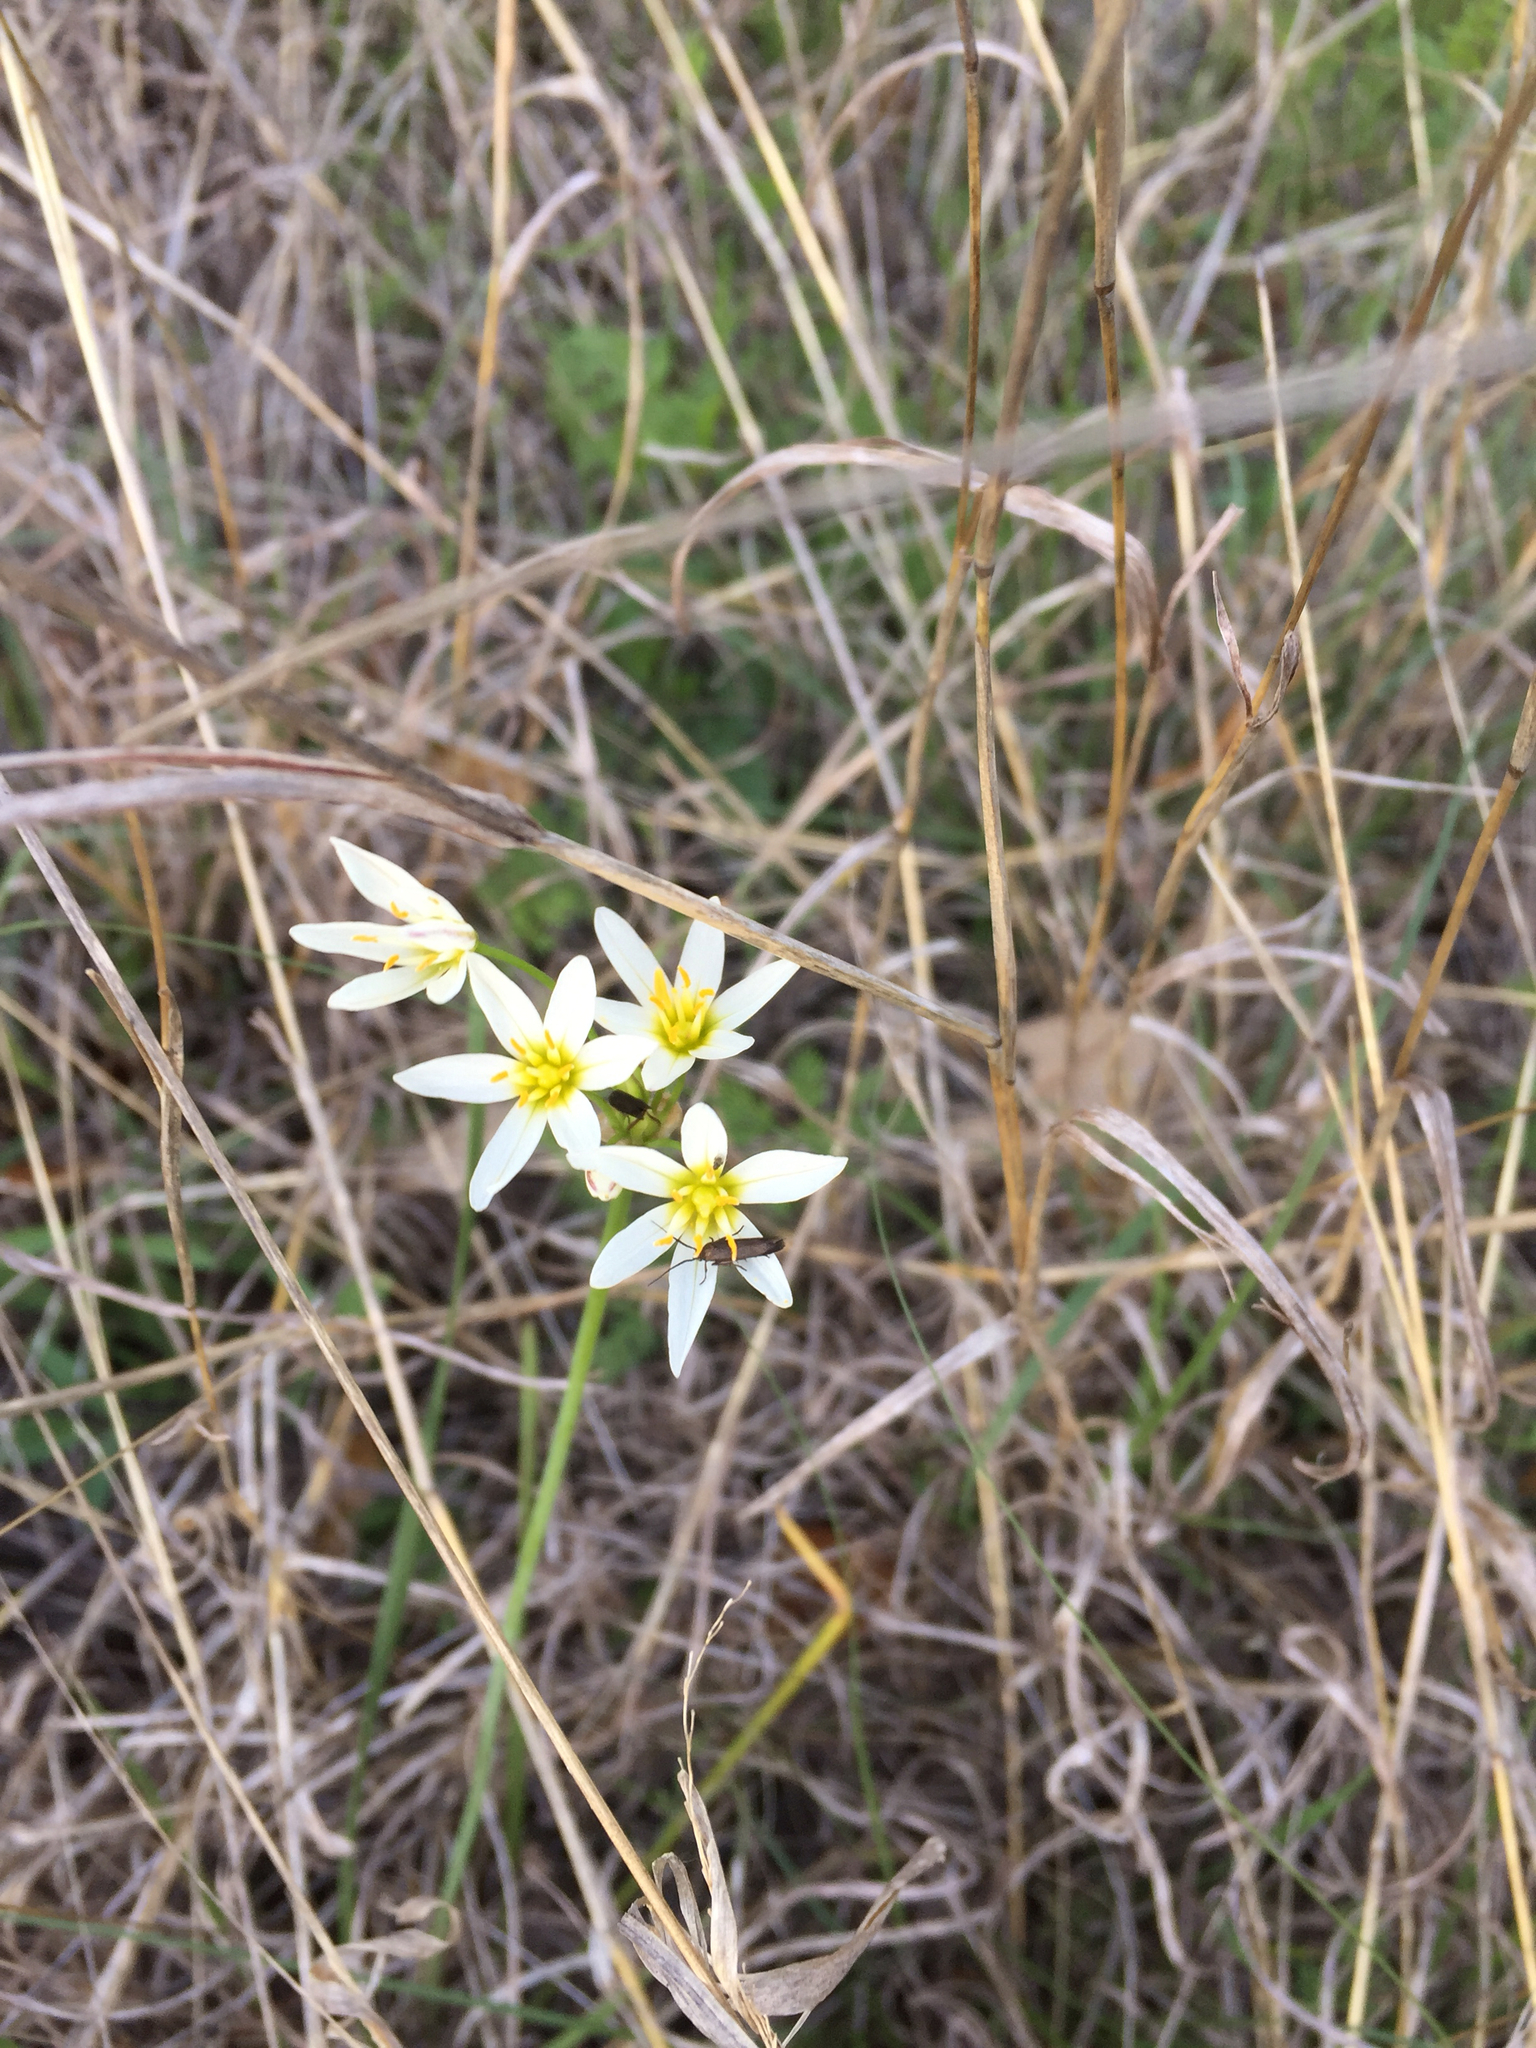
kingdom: Plantae
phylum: Tracheophyta
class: Liliopsida
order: Asparagales
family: Amaryllidaceae
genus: Nothoscordum
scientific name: Nothoscordum bivalve
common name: Crow-poison
